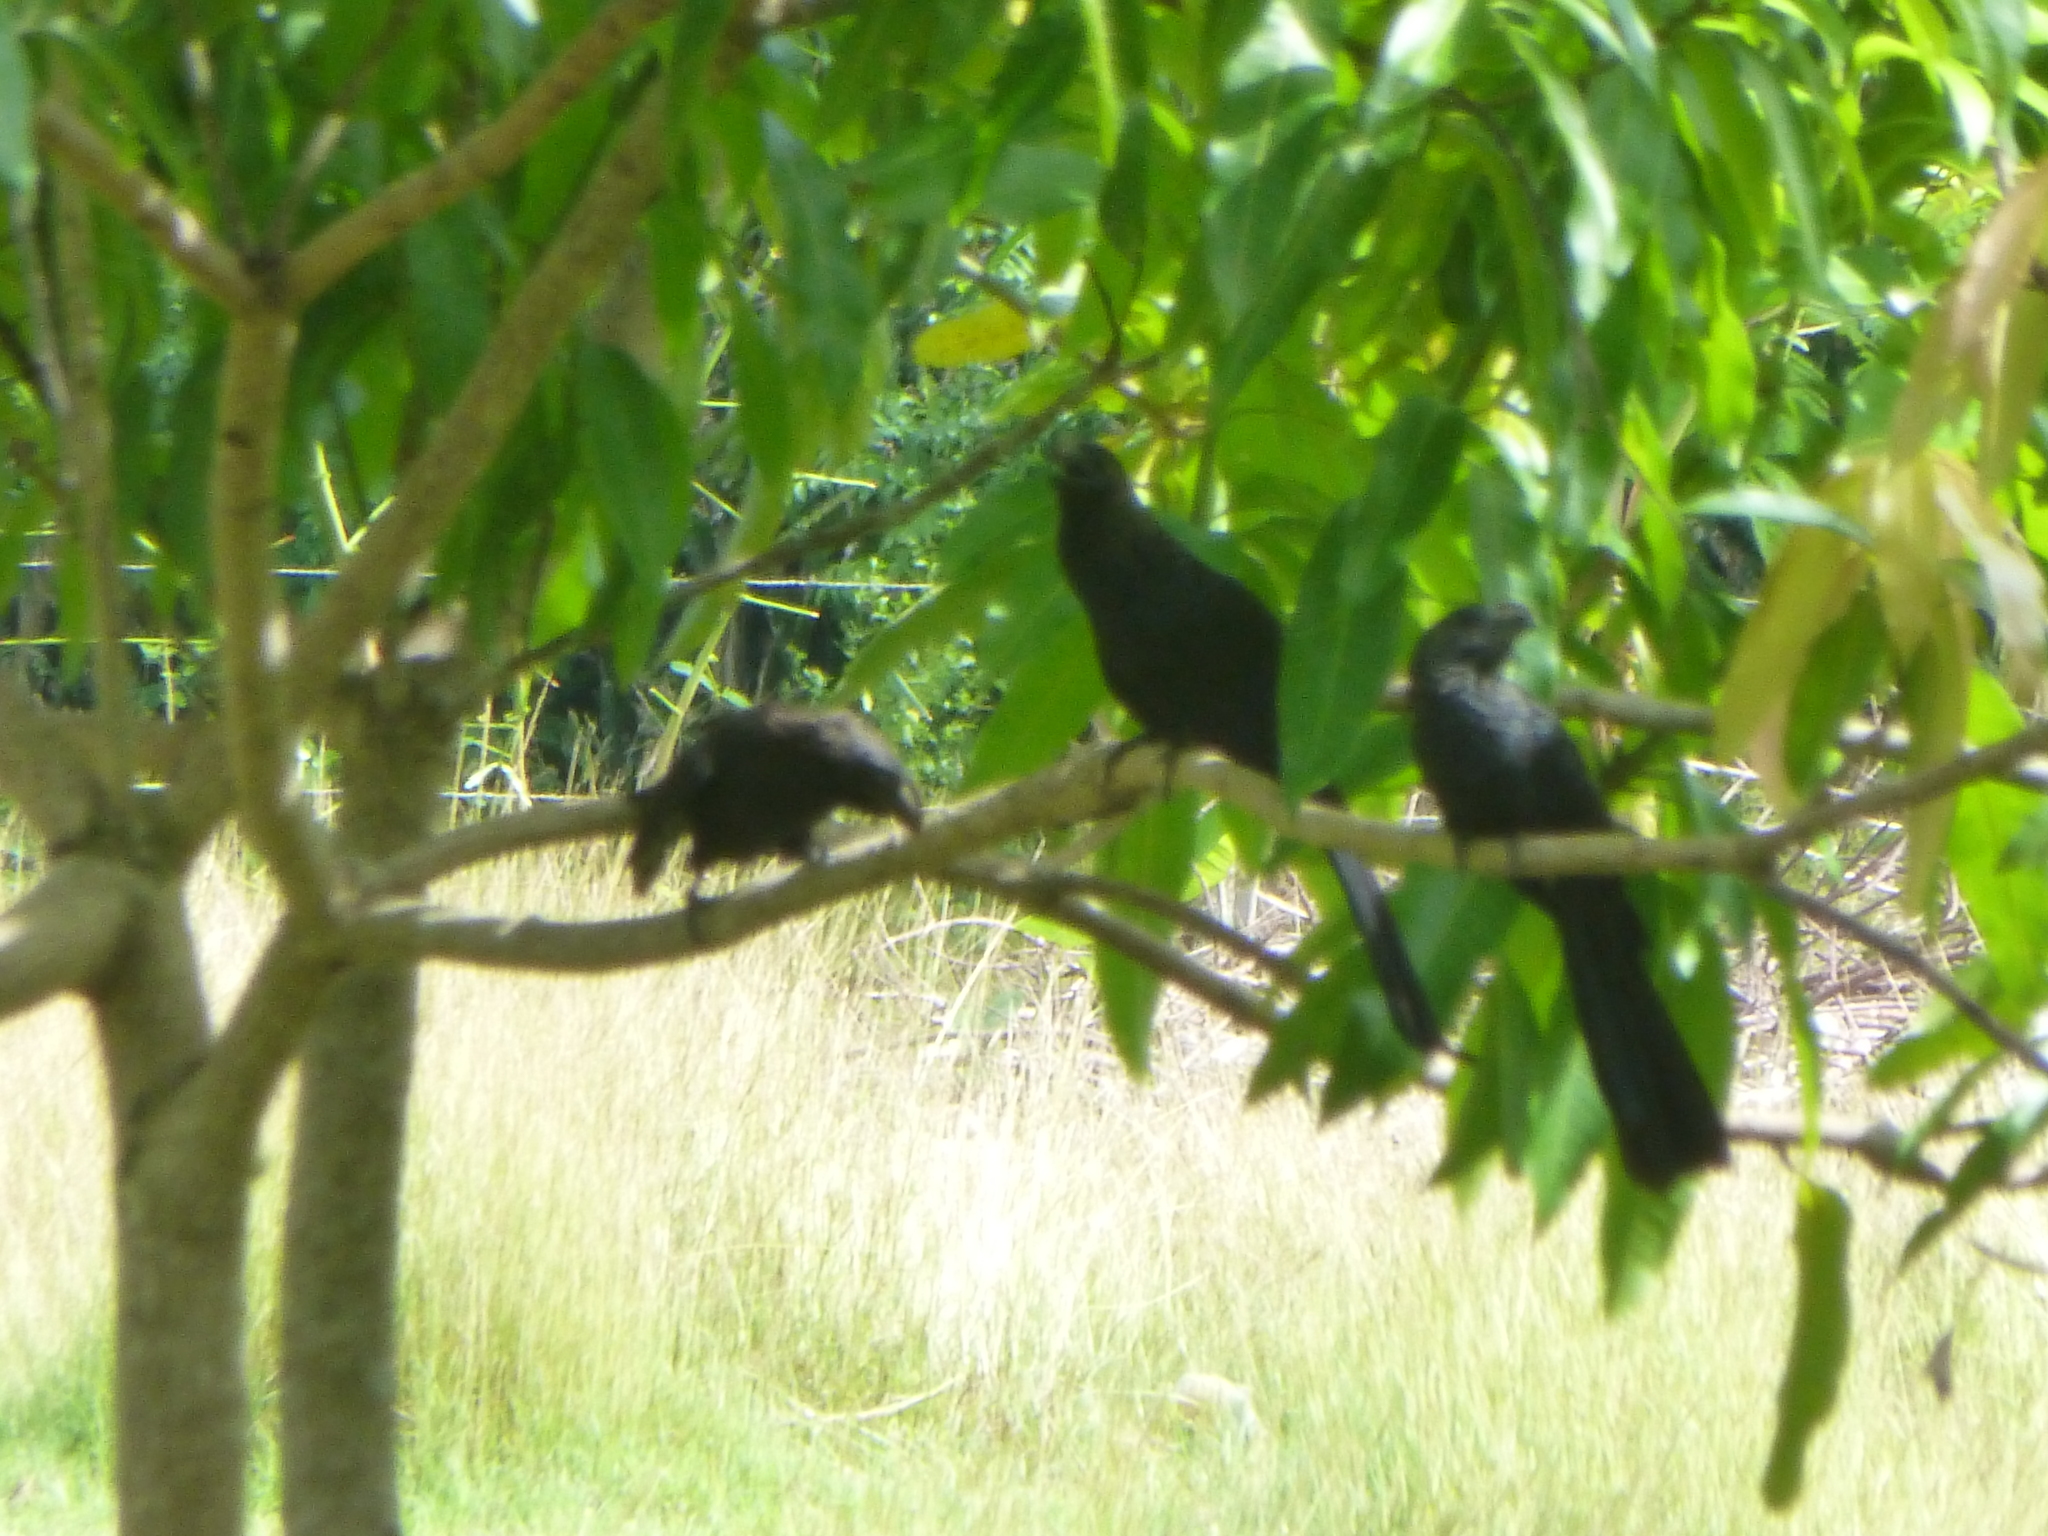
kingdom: Animalia
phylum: Chordata
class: Aves
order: Cuculiformes
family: Cuculidae
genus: Crotophaga
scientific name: Crotophaga ani
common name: Smooth-billed ani
